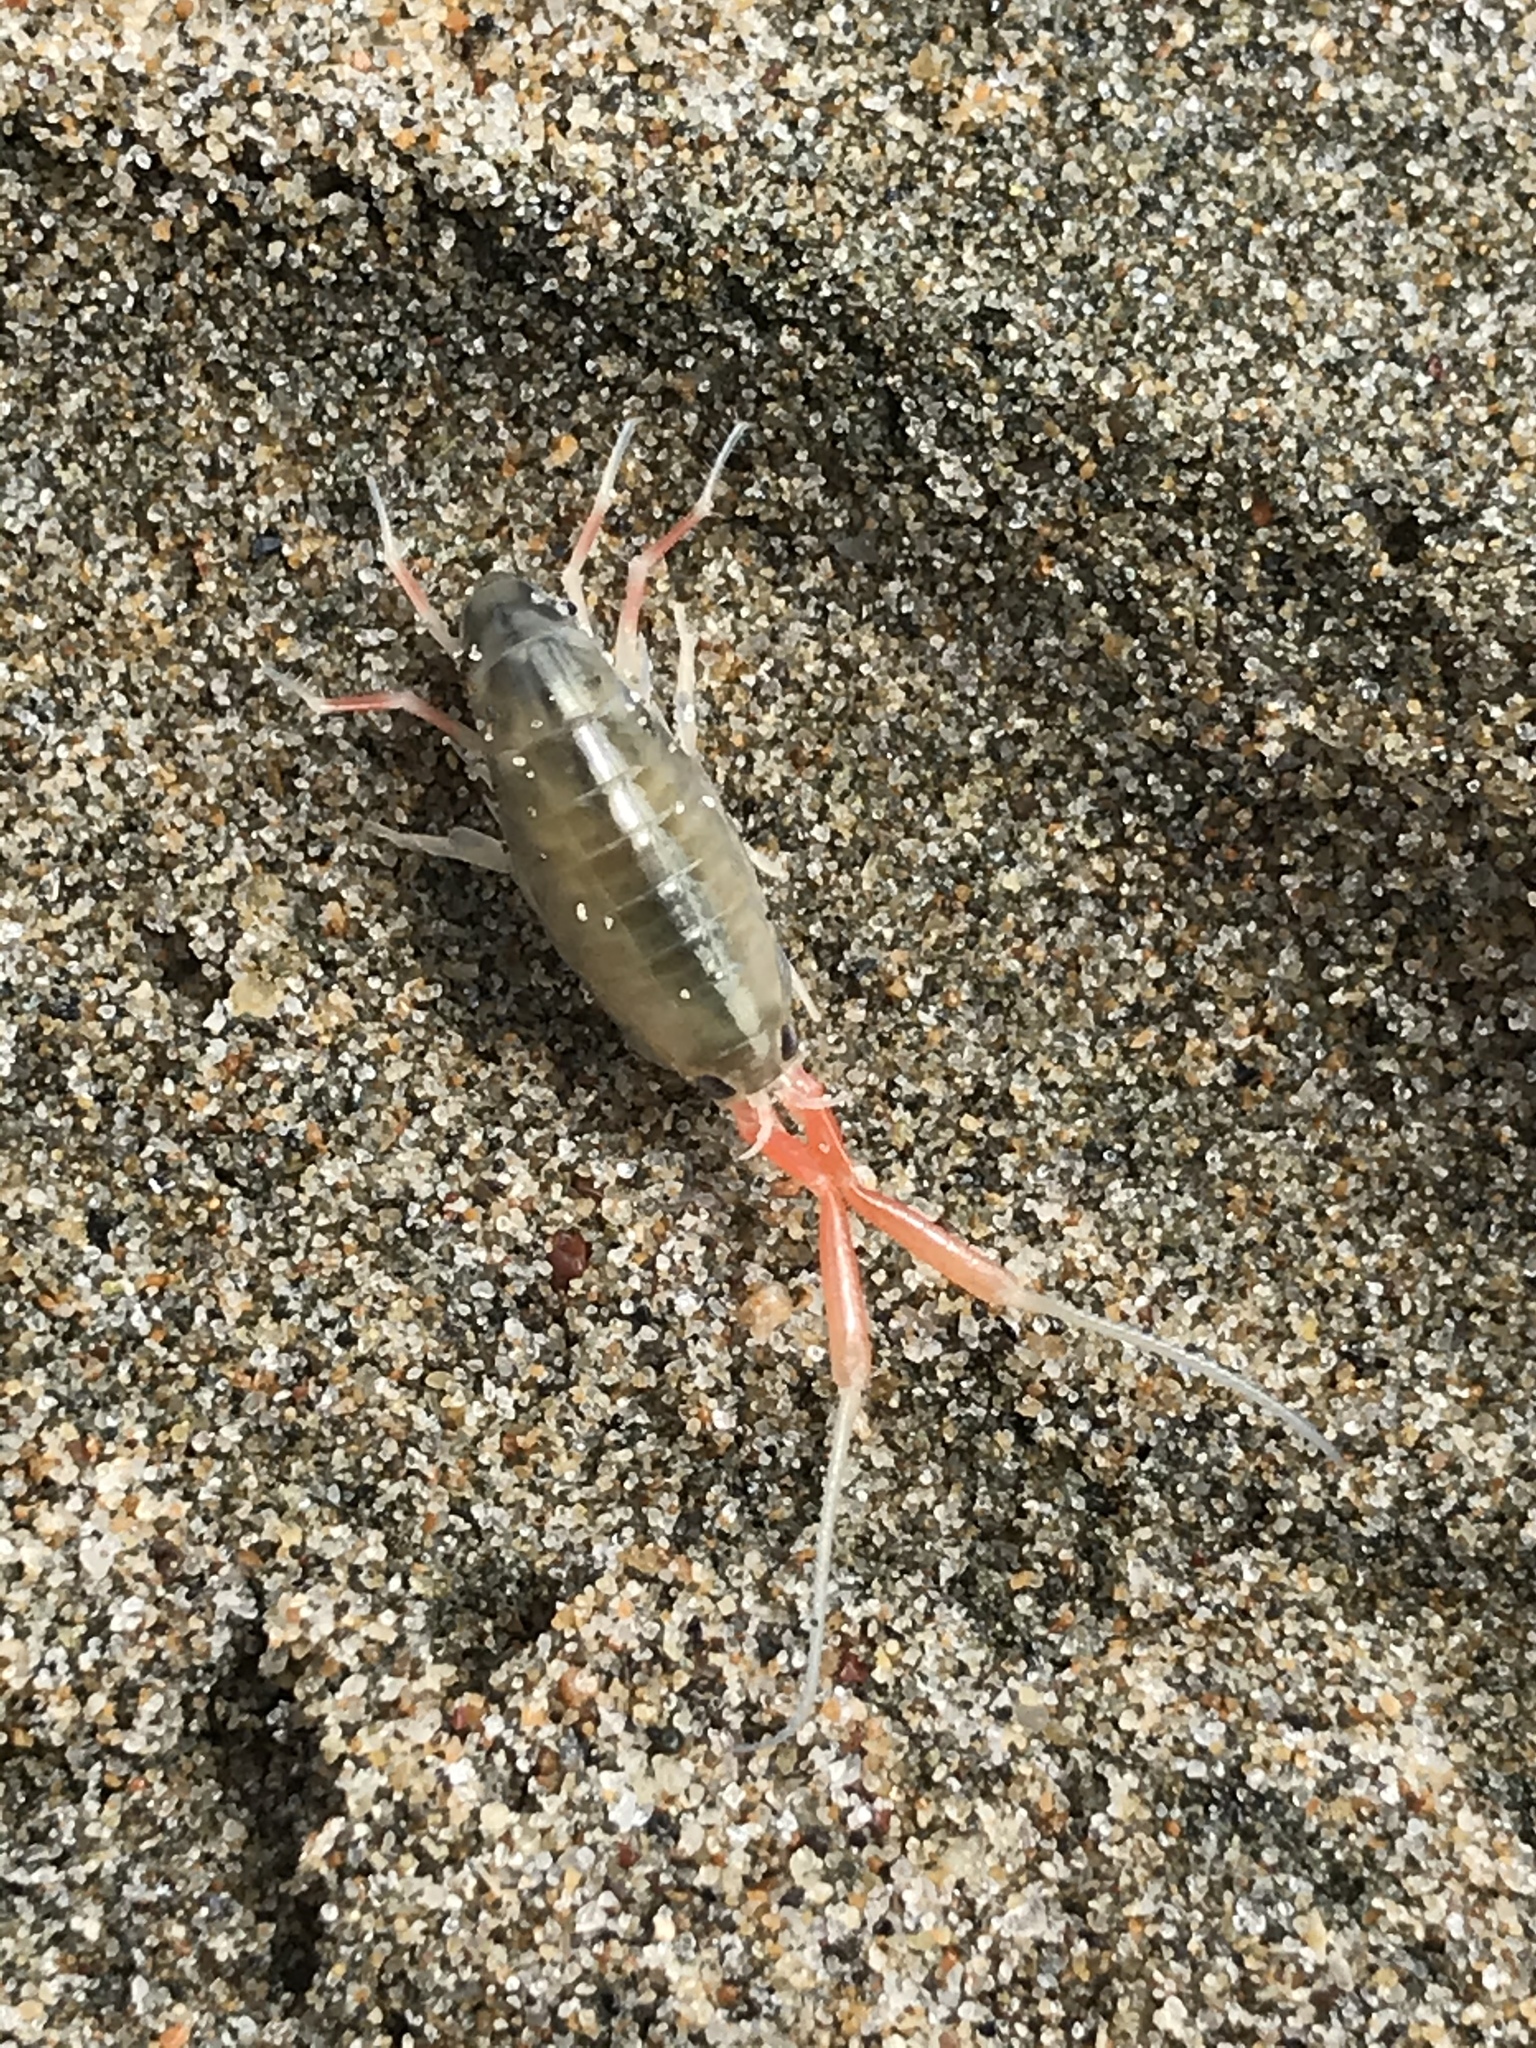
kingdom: Animalia
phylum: Arthropoda
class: Malacostraca
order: Amphipoda
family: Talitridae
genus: Megalorchestia
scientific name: Megalorchestia californiana
